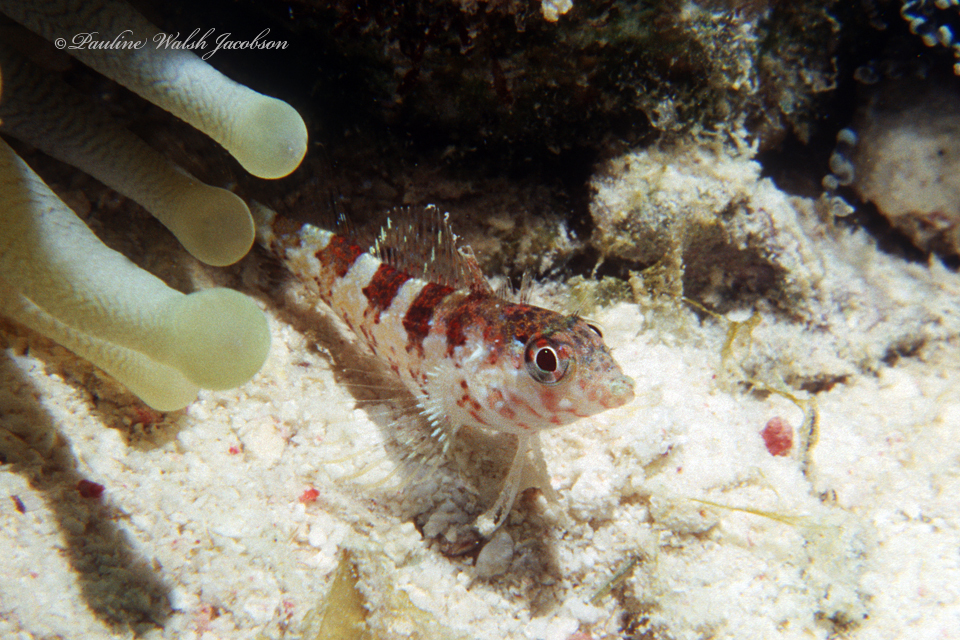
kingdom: Animalia
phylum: Chordata
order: Perciformes
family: Labrisomidae
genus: Malacoctenus
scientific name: Malacoctenus triangulatus
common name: Saddled blenny
